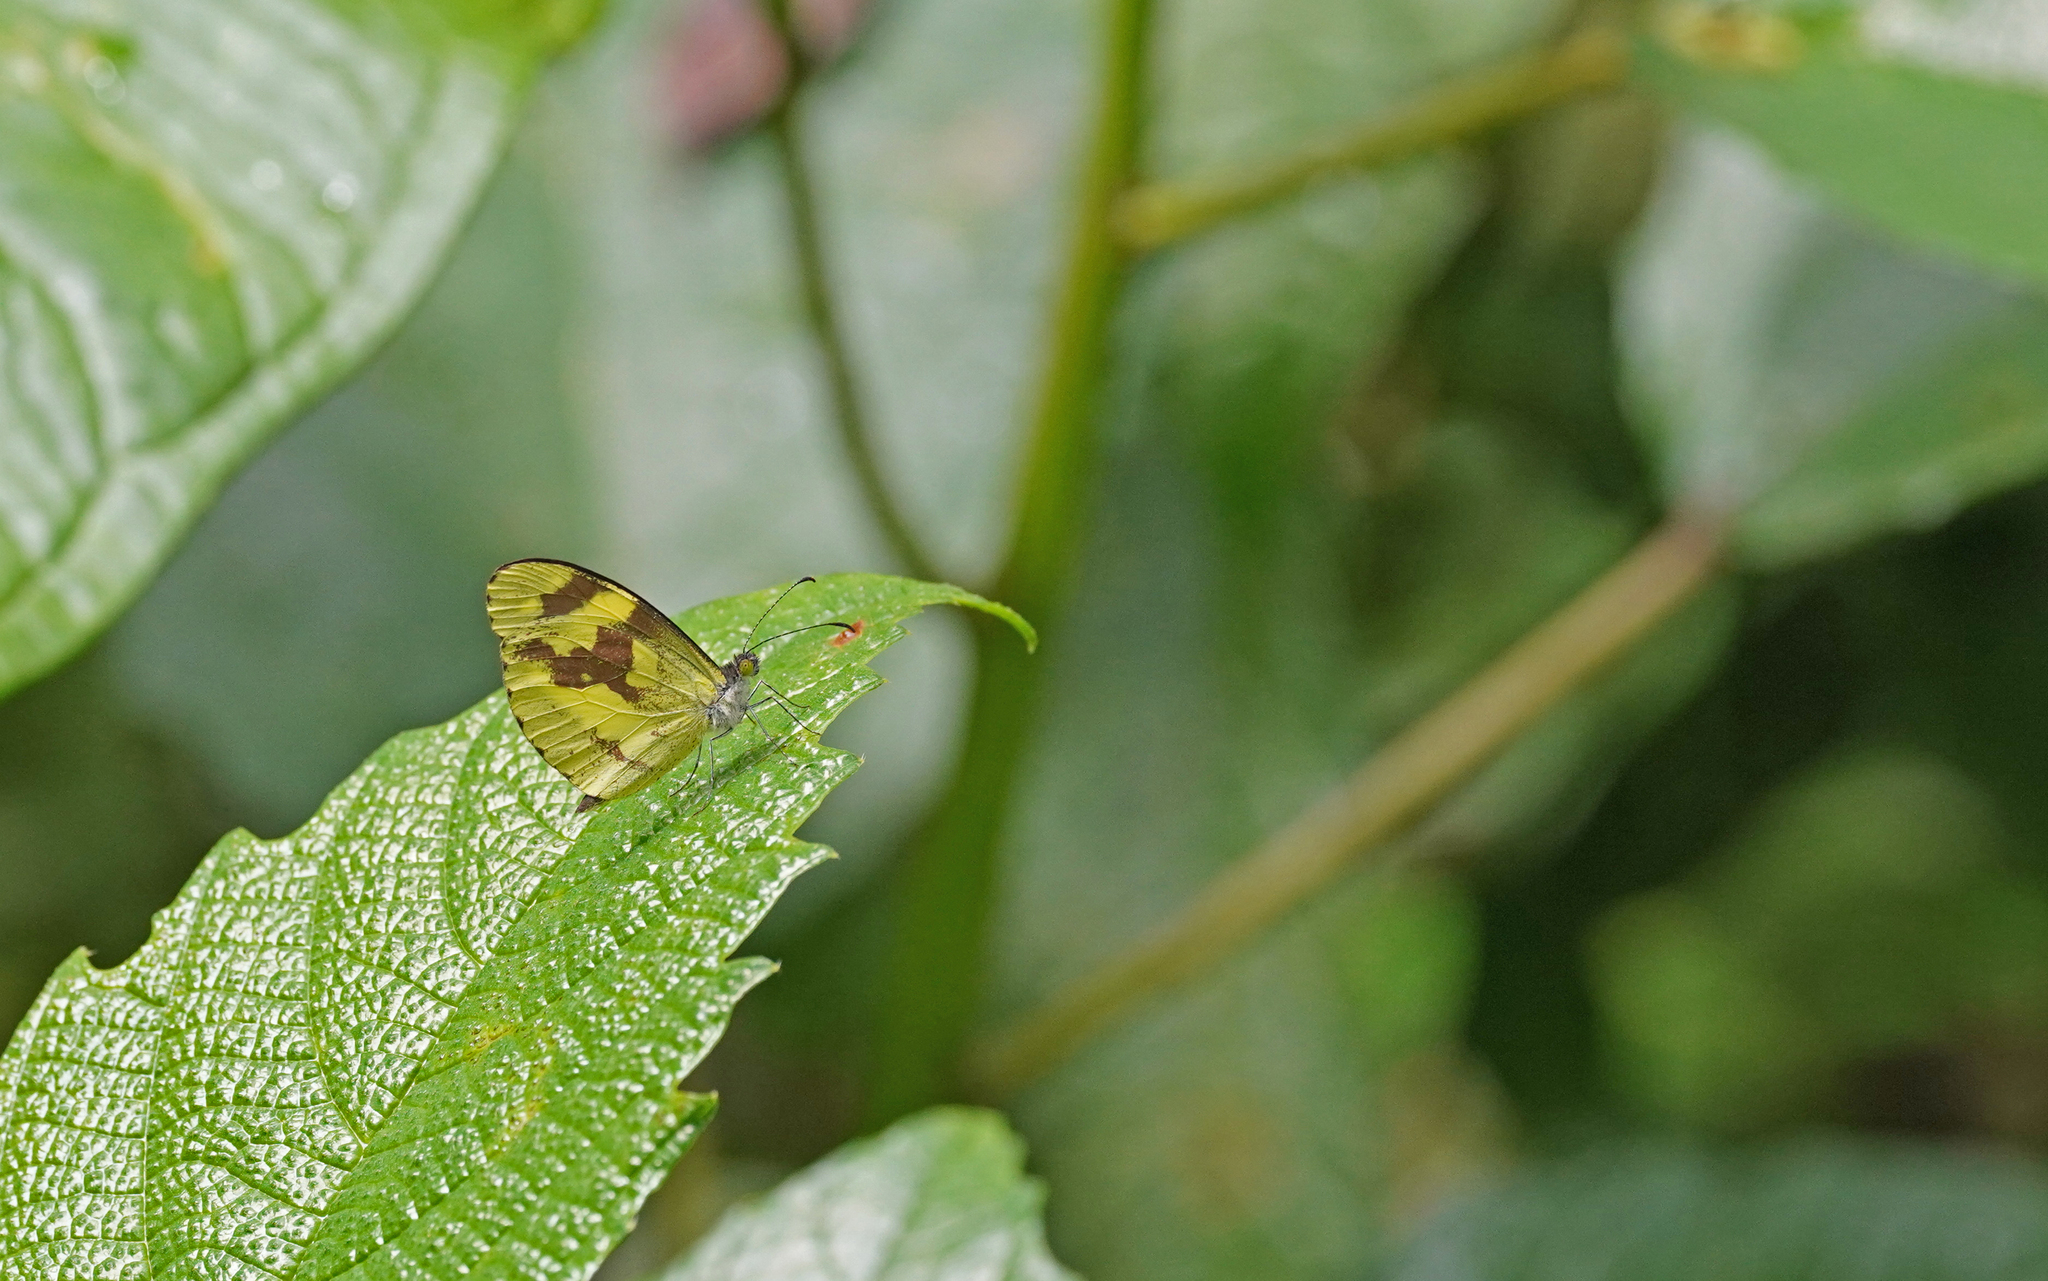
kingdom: Animalia
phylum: Arthropoda
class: Insecta
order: Lepidoptera
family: Pieridae
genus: Dismorphia
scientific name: Dismorphia medora
